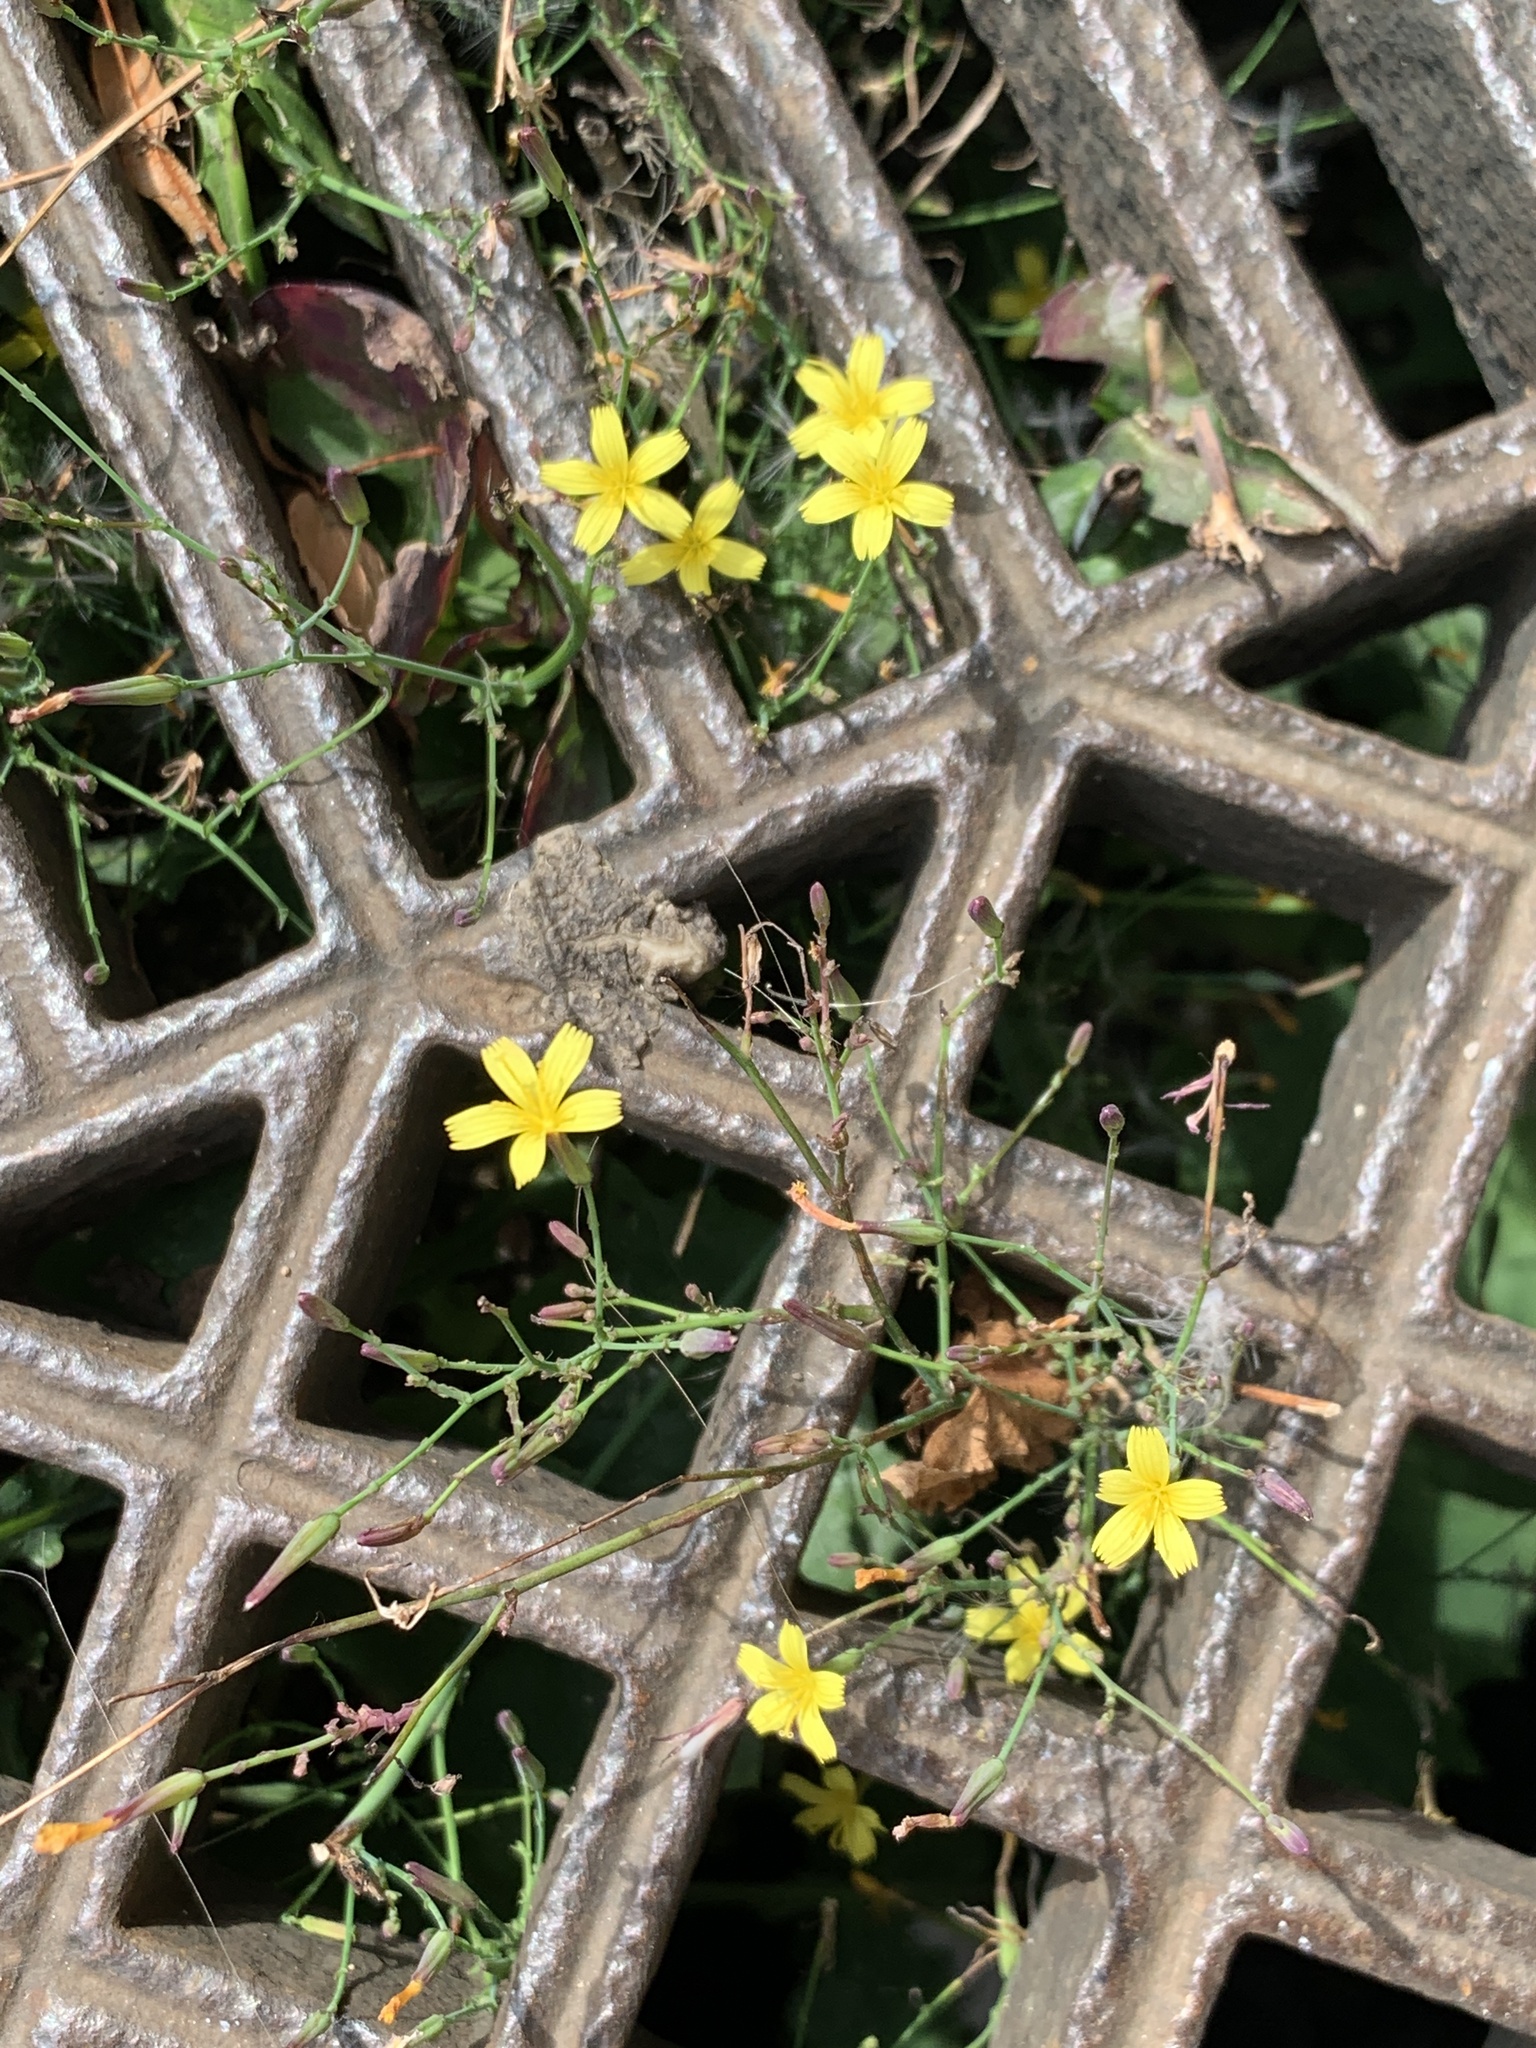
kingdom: Plantae
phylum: Tracheophyta
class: Magnoliopsida
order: Asterales
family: Asteraceae
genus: Mycelis
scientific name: Mycelis muralis
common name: Wall lettuce
